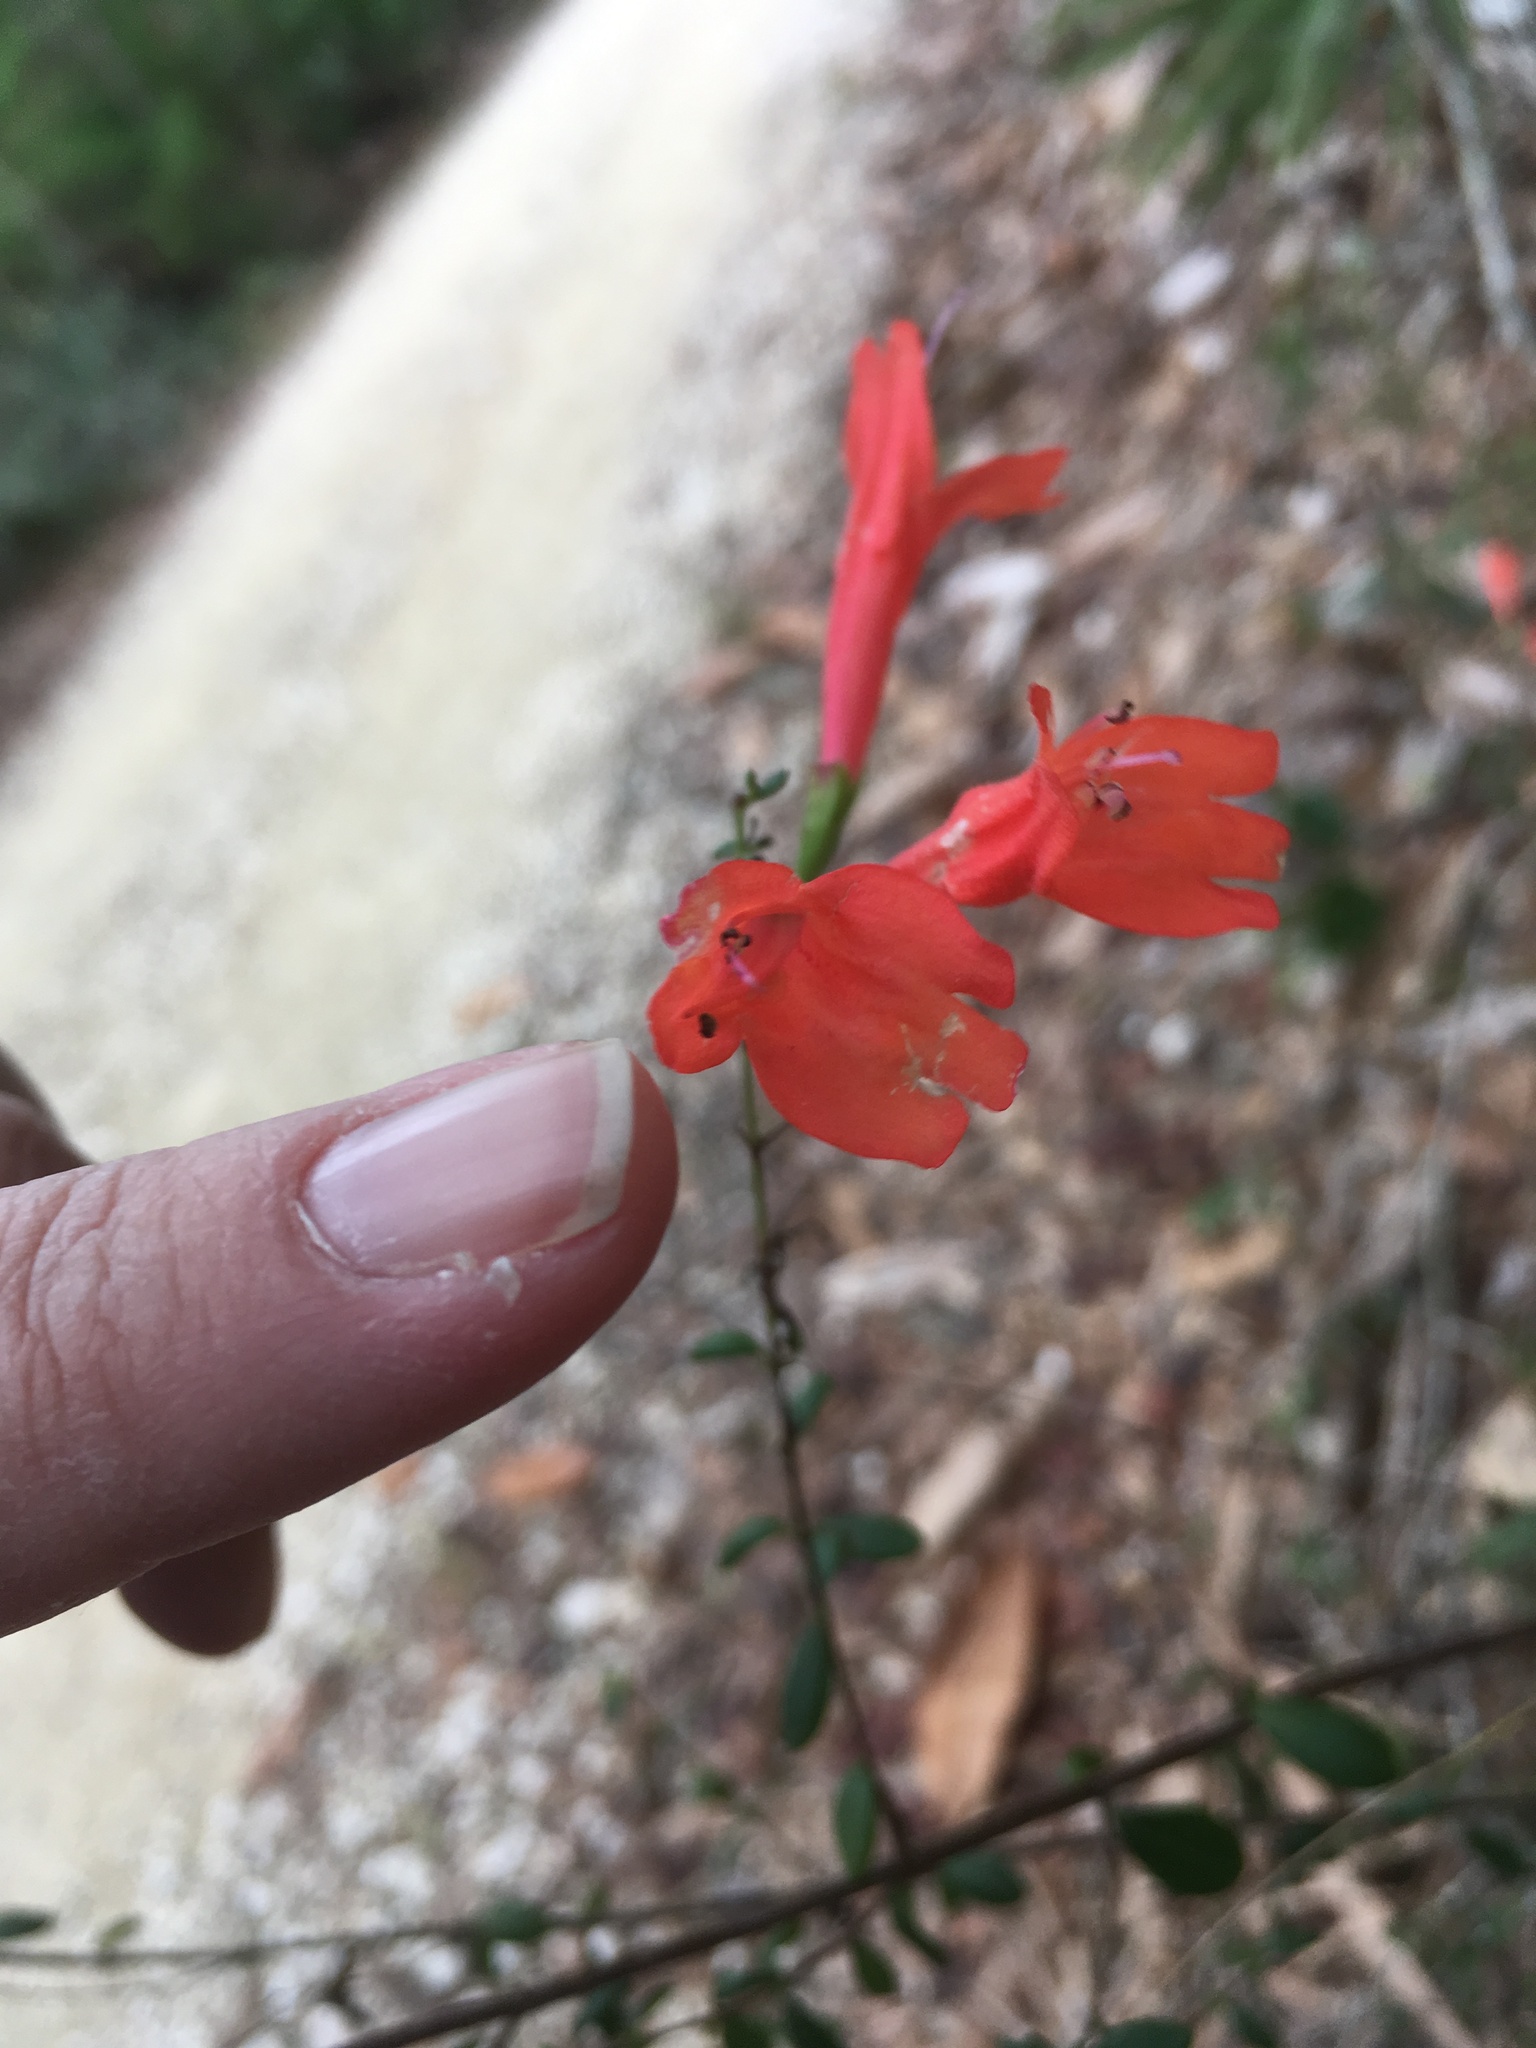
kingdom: Plantae
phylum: Tracheophyta
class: Magnoliopsida
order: Lamiales
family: Lamiaceae
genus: Clinopodium
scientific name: Clinopodium coccineum
